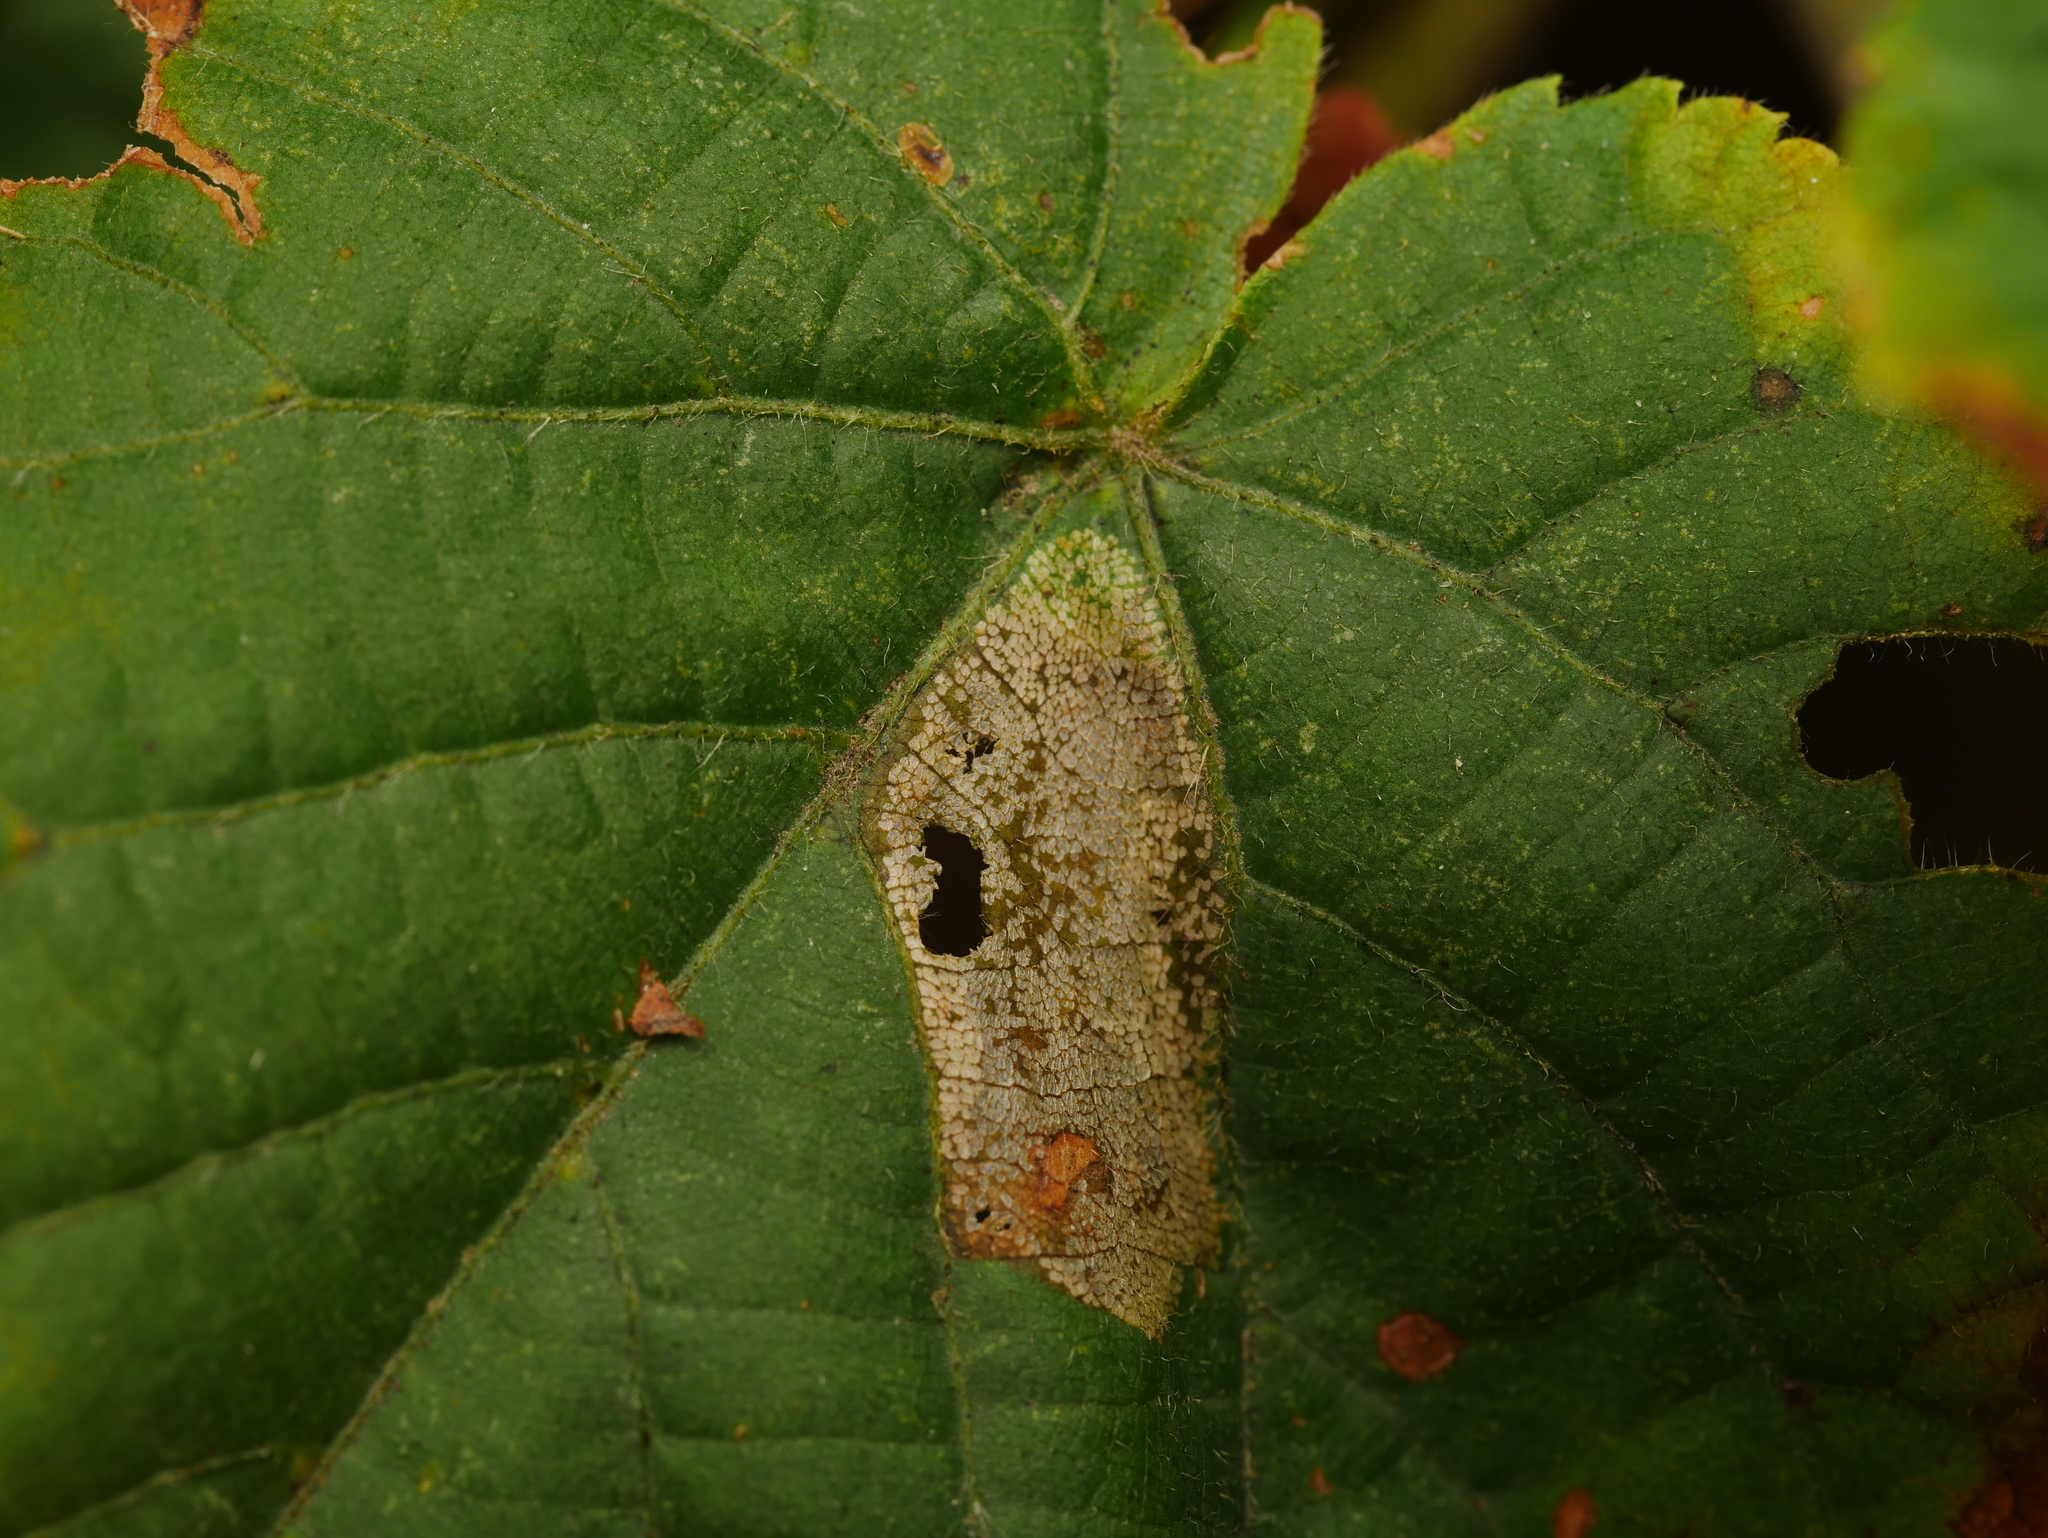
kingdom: Animalia
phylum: Arthropoda
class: Insecta
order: Lepidoptera
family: Gracillariidae
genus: Phyllonorycter
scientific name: Phyllonorycter issikii
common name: Linden midget
